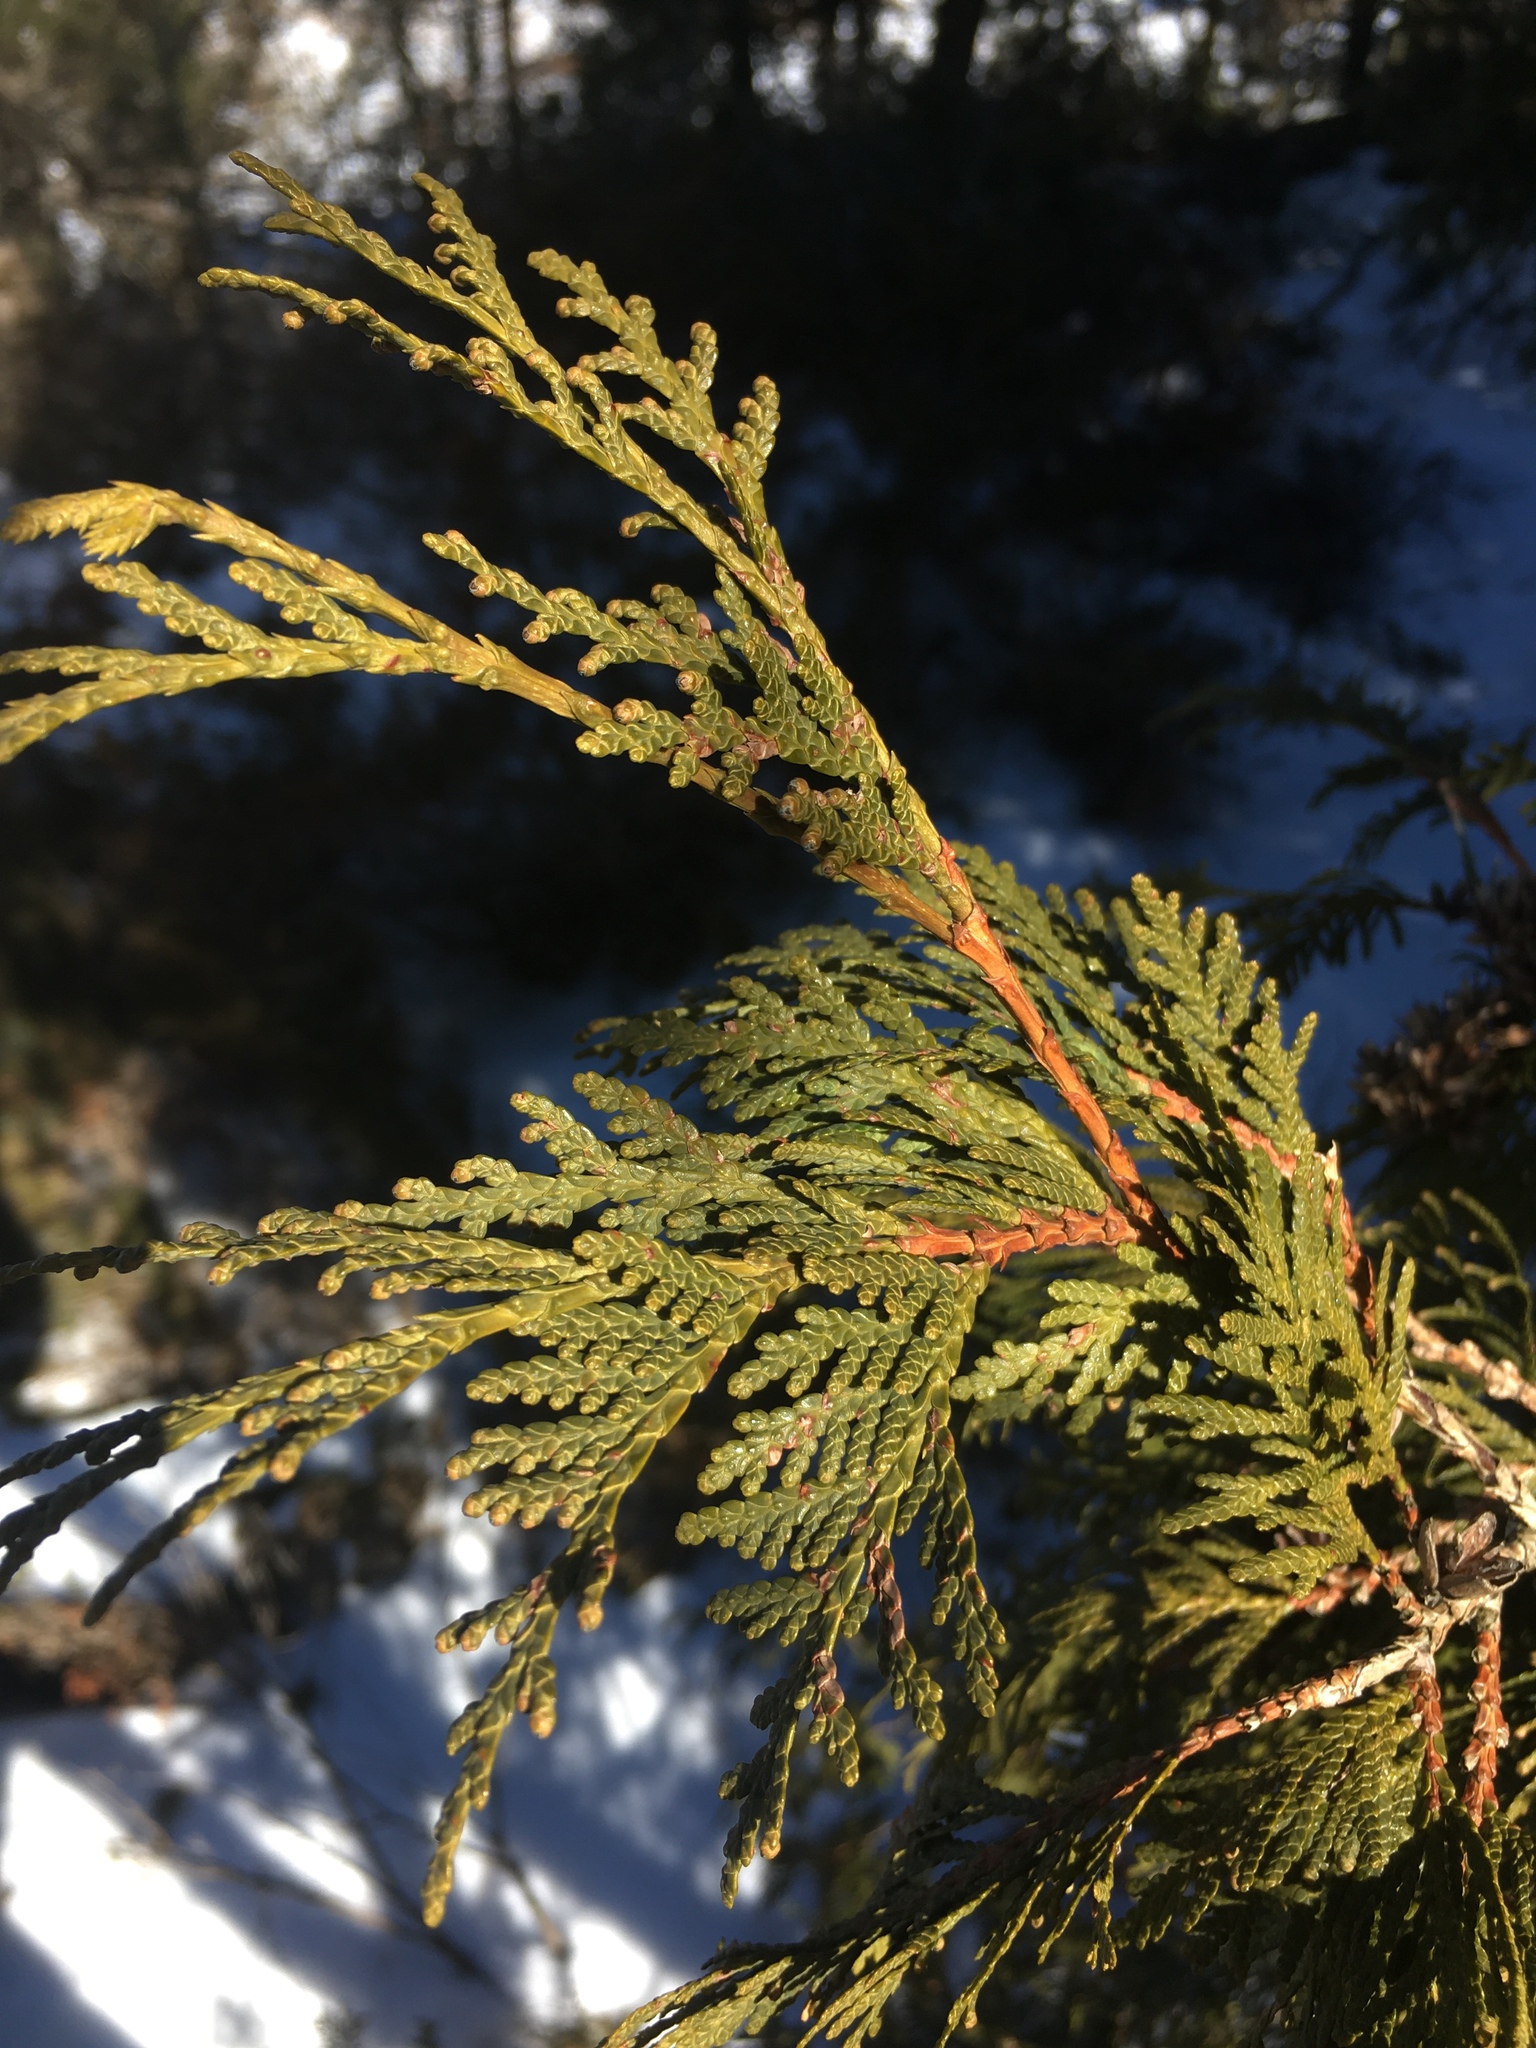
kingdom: Plantae
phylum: Tracheophyta
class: Pinopsida
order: Pinales
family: Cupressaceae
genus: Thuja
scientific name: Thuja occidentalis
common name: Northern white-cedar
